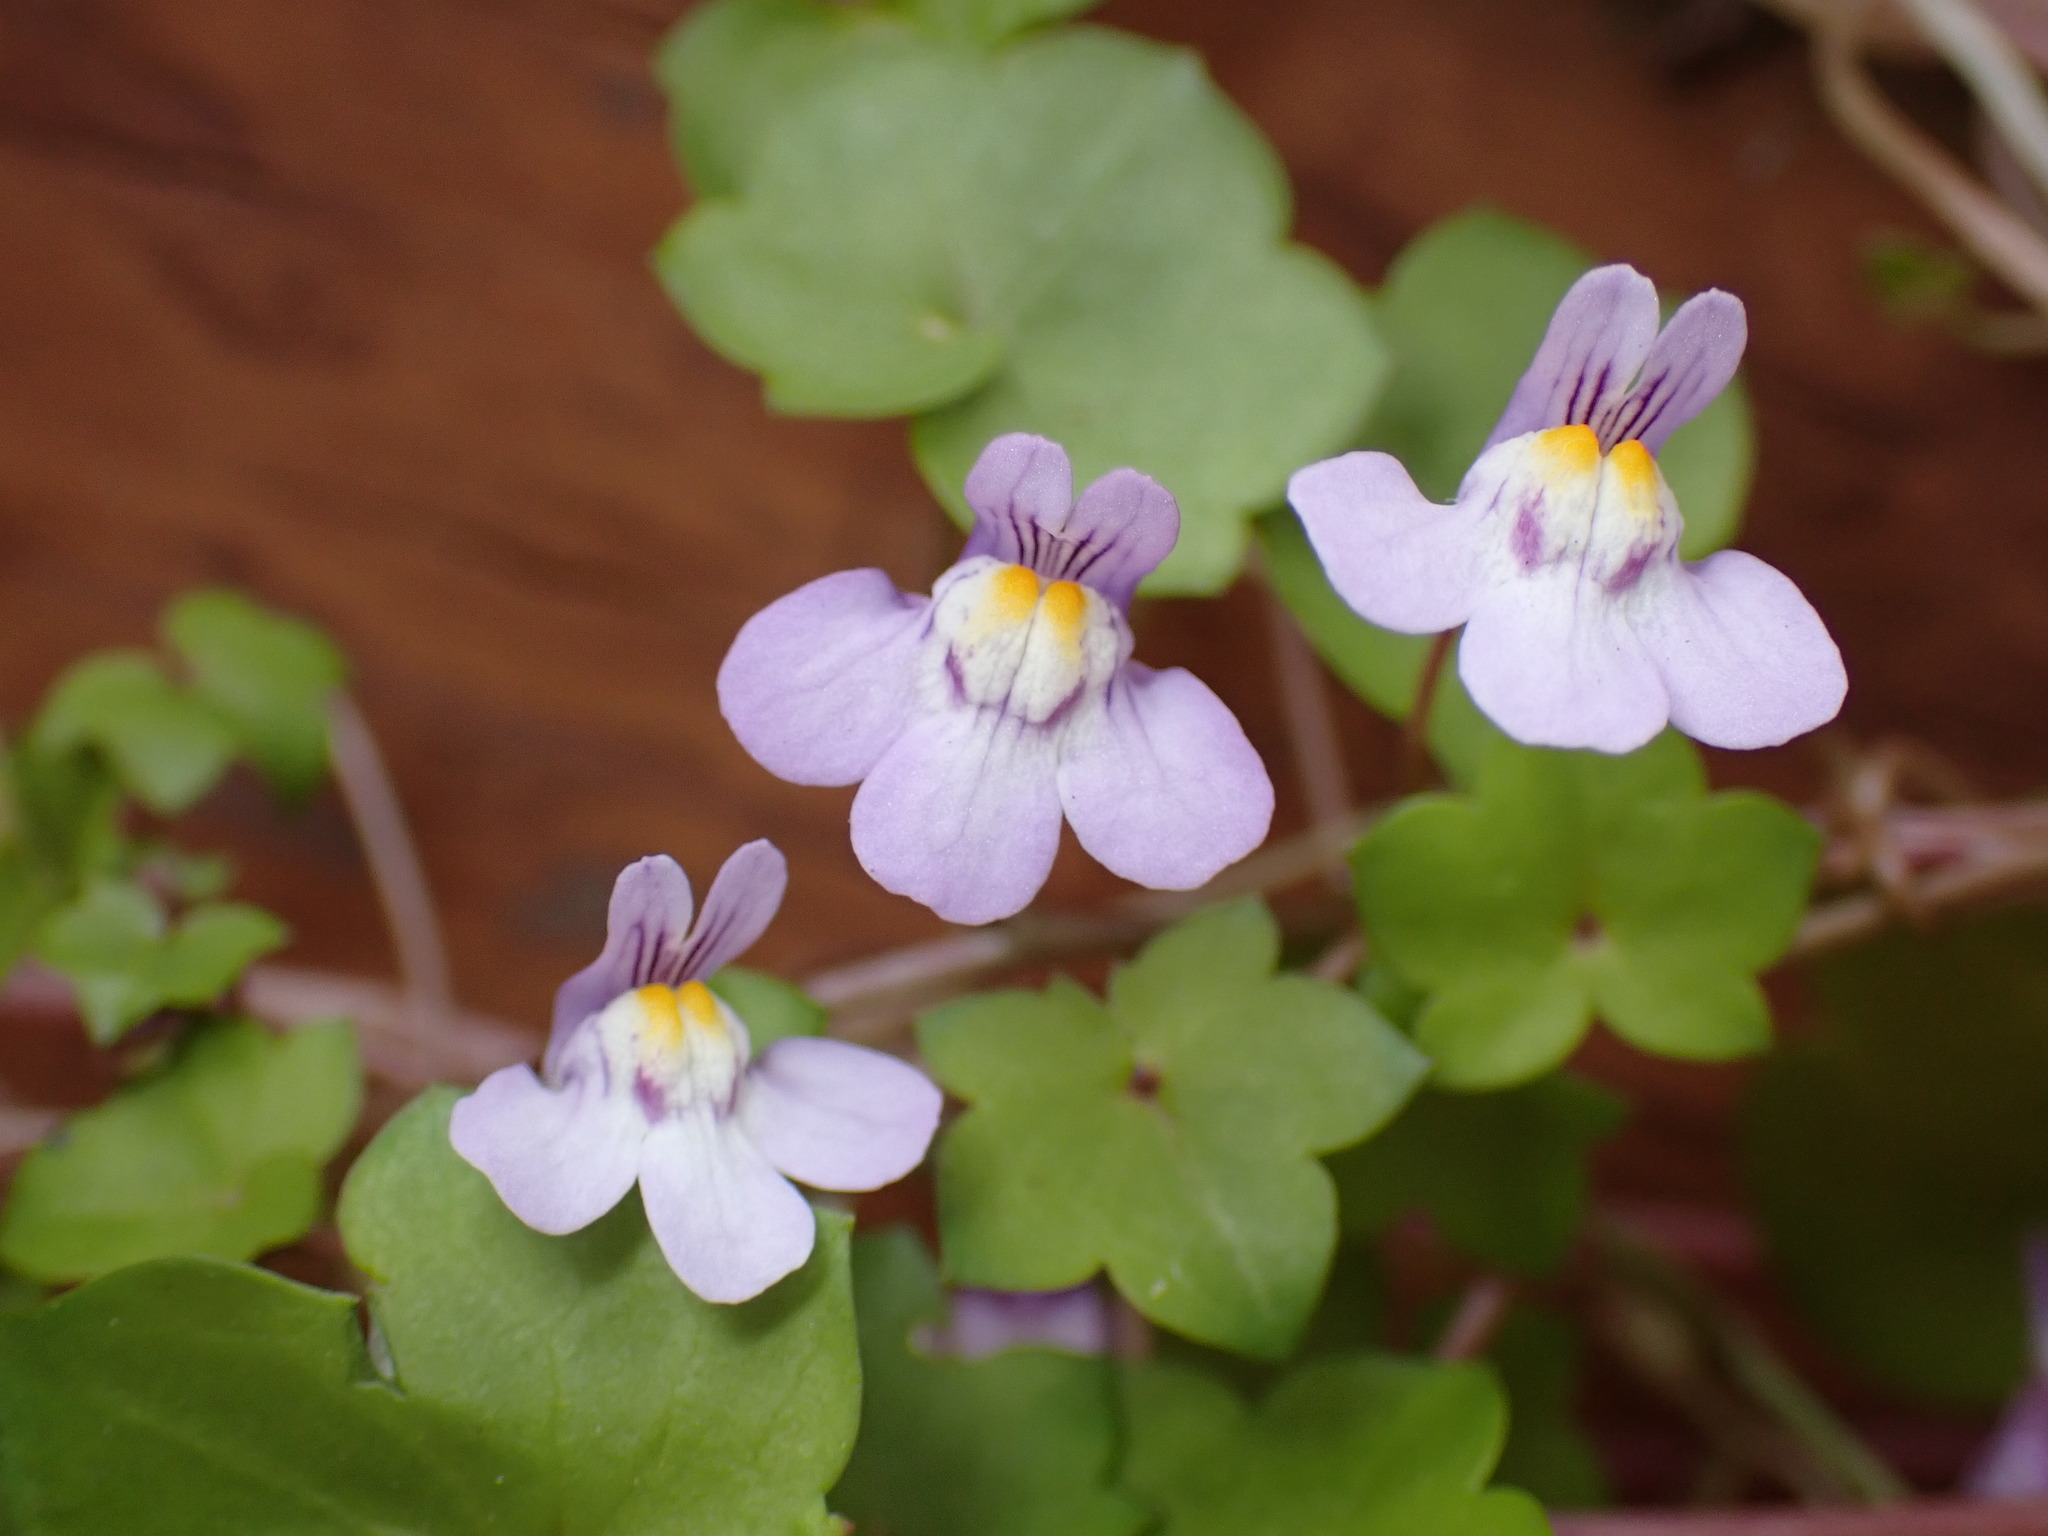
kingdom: Plantae
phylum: Tracheophyta
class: Magnoliopsida
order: Lamiales
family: Plantaginaceae
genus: Cymbalaria
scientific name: Cymbalaria muralis
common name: Ivy-leaved toadflax
